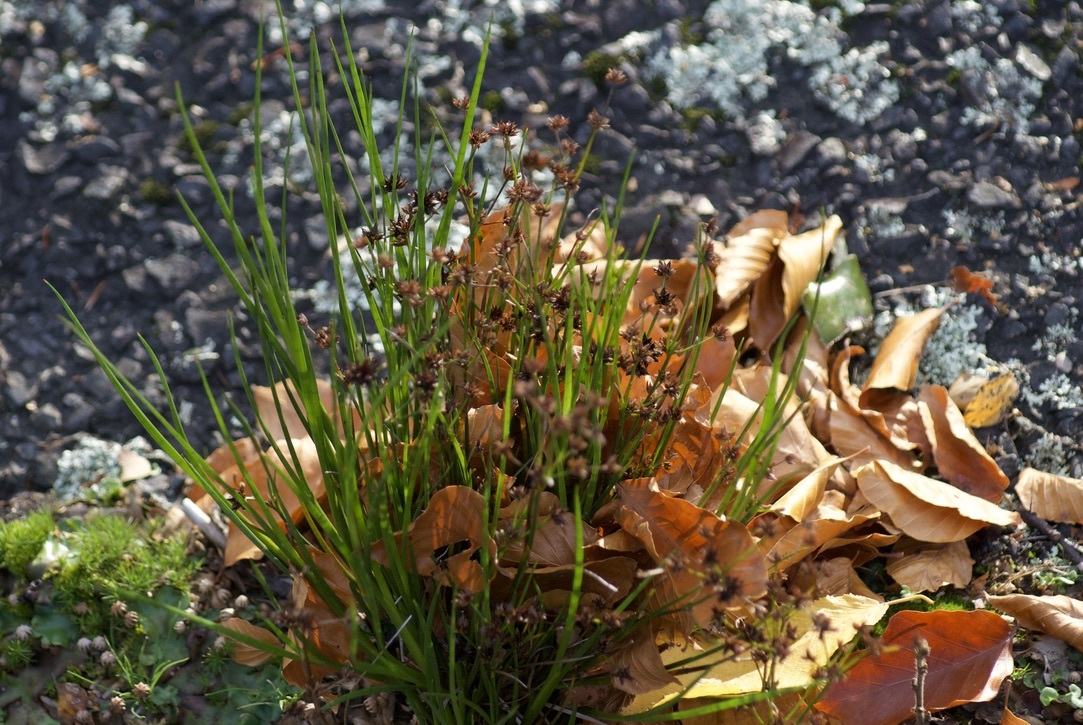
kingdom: Plantae
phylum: Tracheophyta
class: Liliopsida
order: Poales
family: Juncaceae
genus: Juncus
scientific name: Juncus articulatus
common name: Jointed rush
